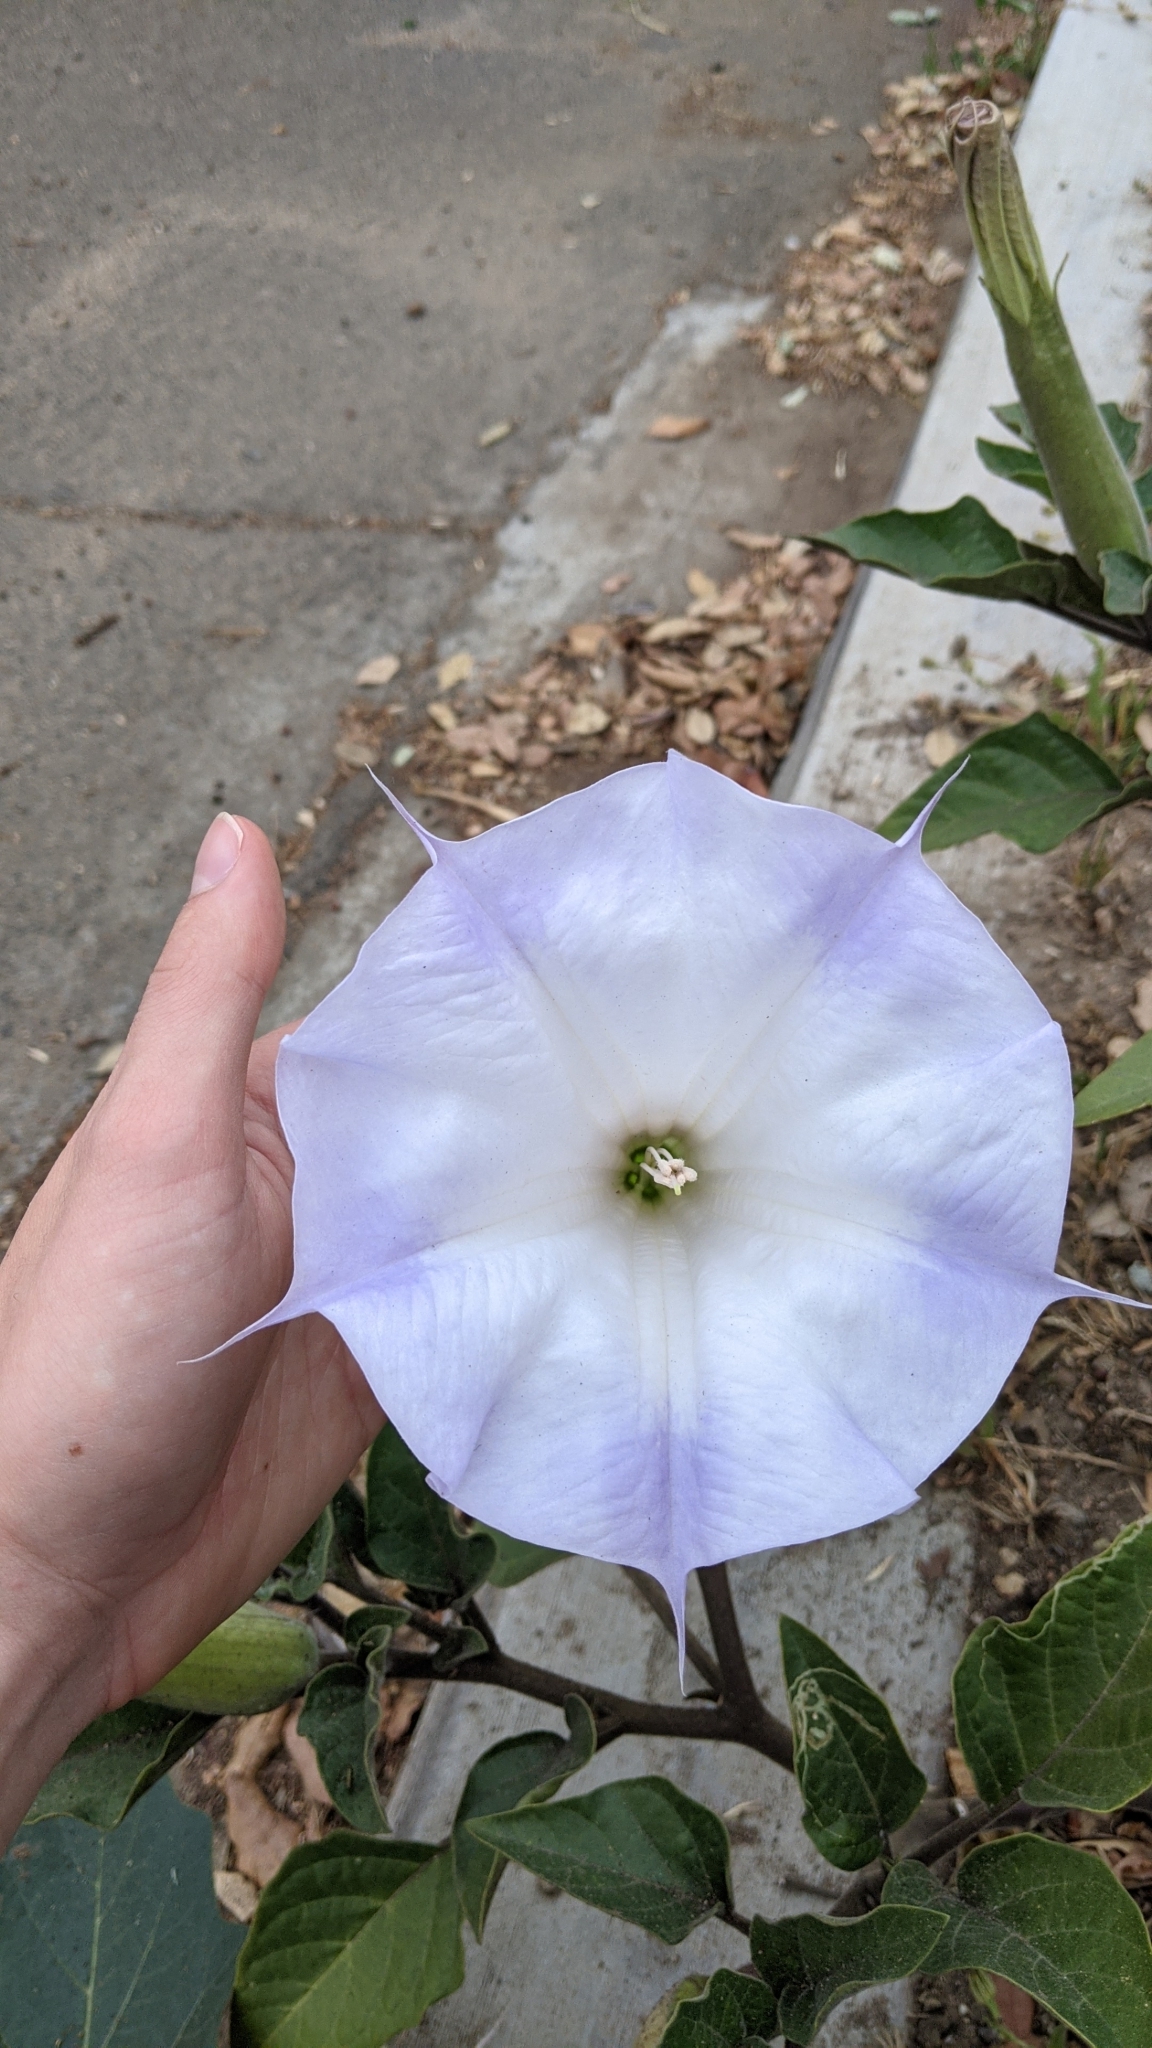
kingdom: Plantae
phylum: Tracheophyta
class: Magnoliopsida
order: Solanales
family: Solanaceae
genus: Datura
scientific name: Datura wrightii
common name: Sacred thorn-apple
